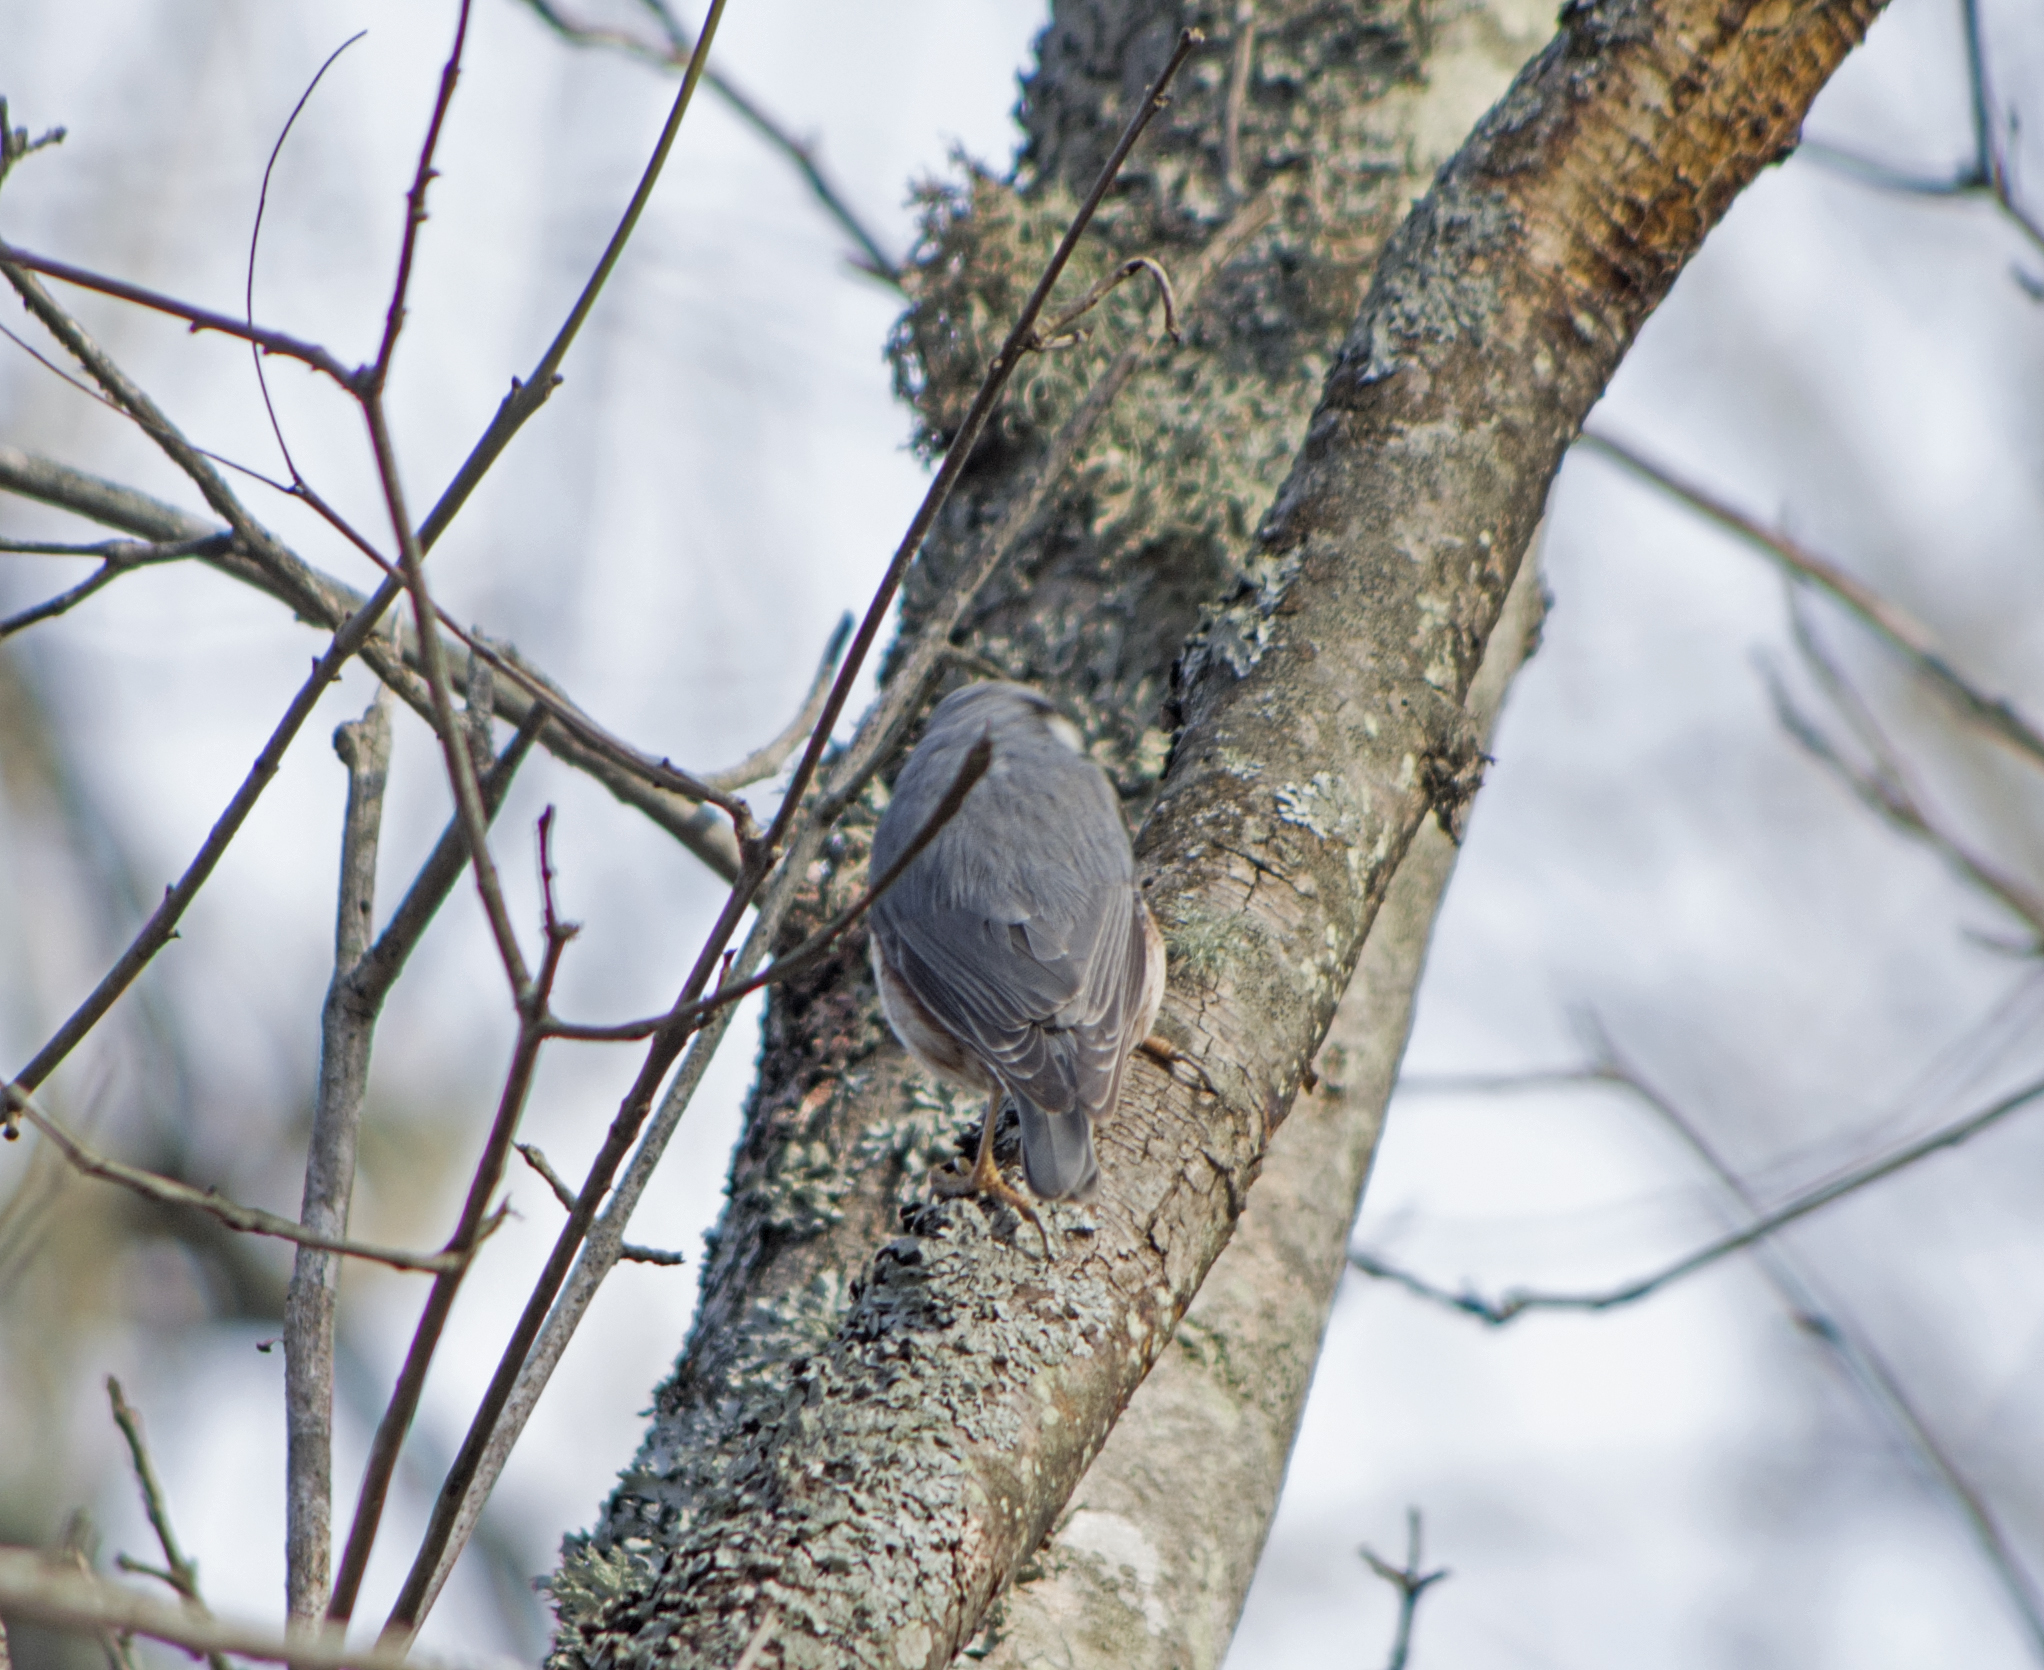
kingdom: Animalia
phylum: Chordata
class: Aves
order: Passeriformes
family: Sittidae
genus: Sitta
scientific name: Sitta europaea
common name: Eurasian nuthatch
